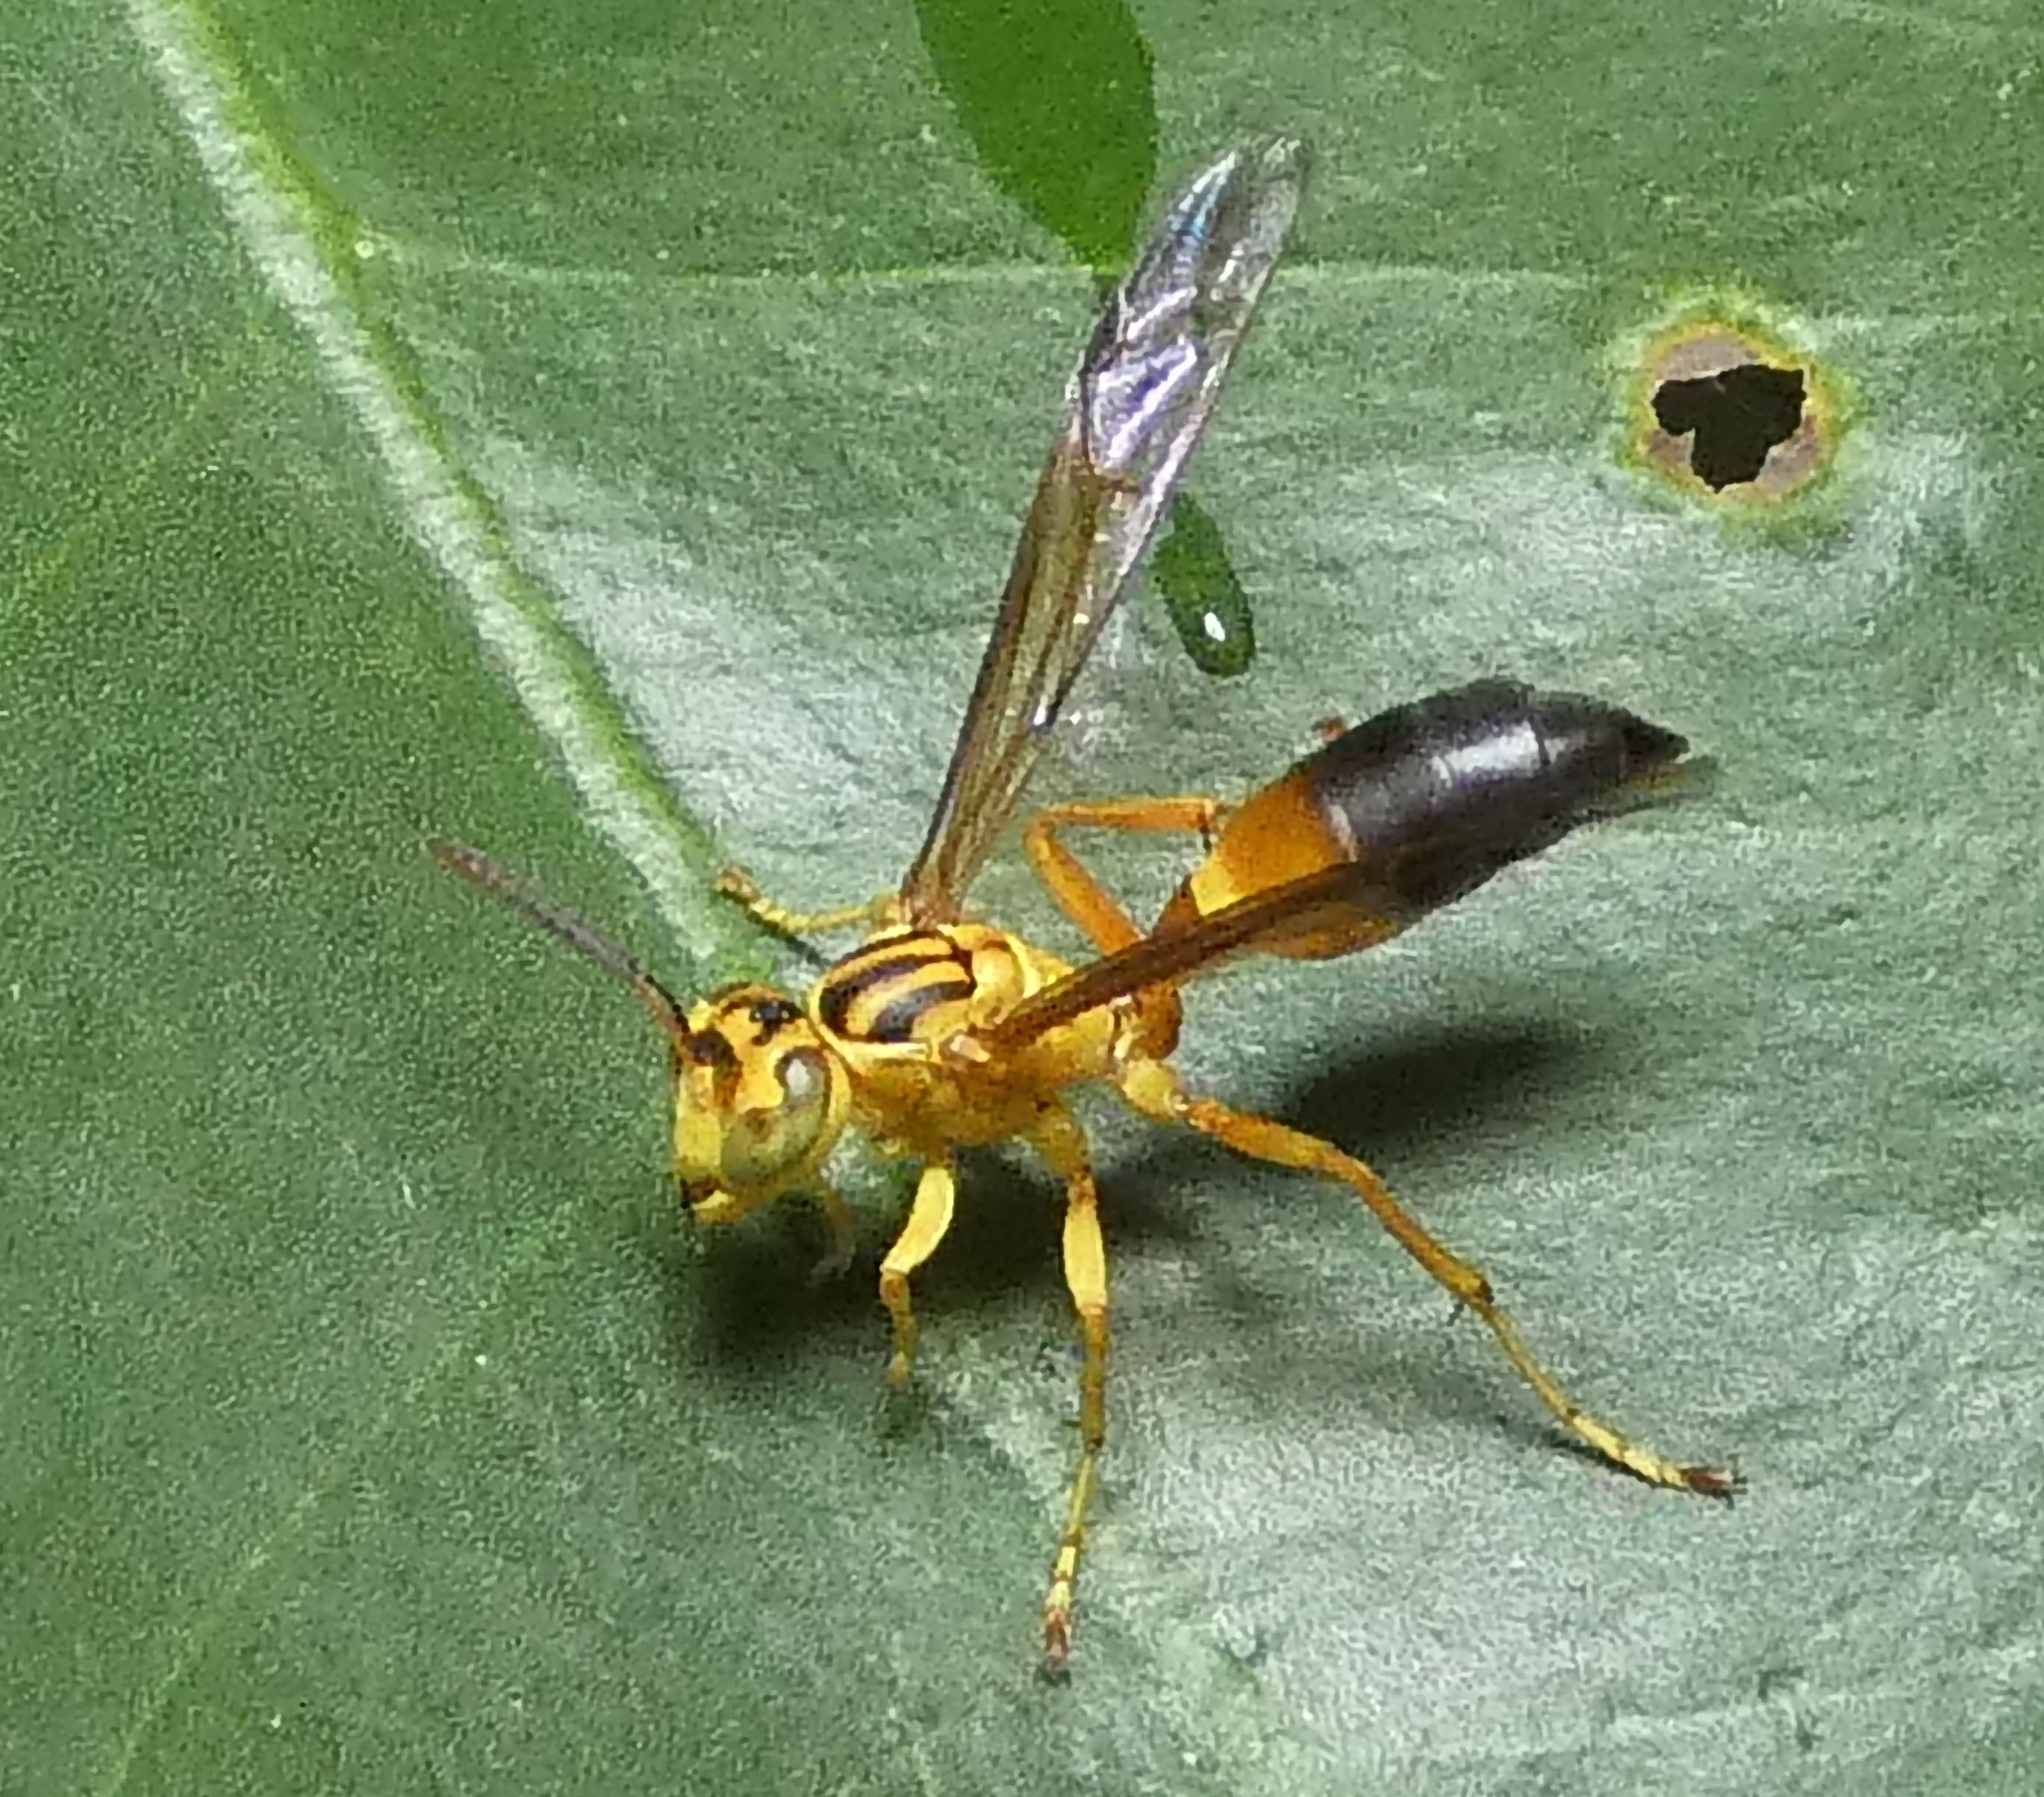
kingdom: Animalia
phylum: Arthropoda
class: Insecta
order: Hymenoptera
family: Vespidae
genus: Agelaia
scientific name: Agelaia pallipes
